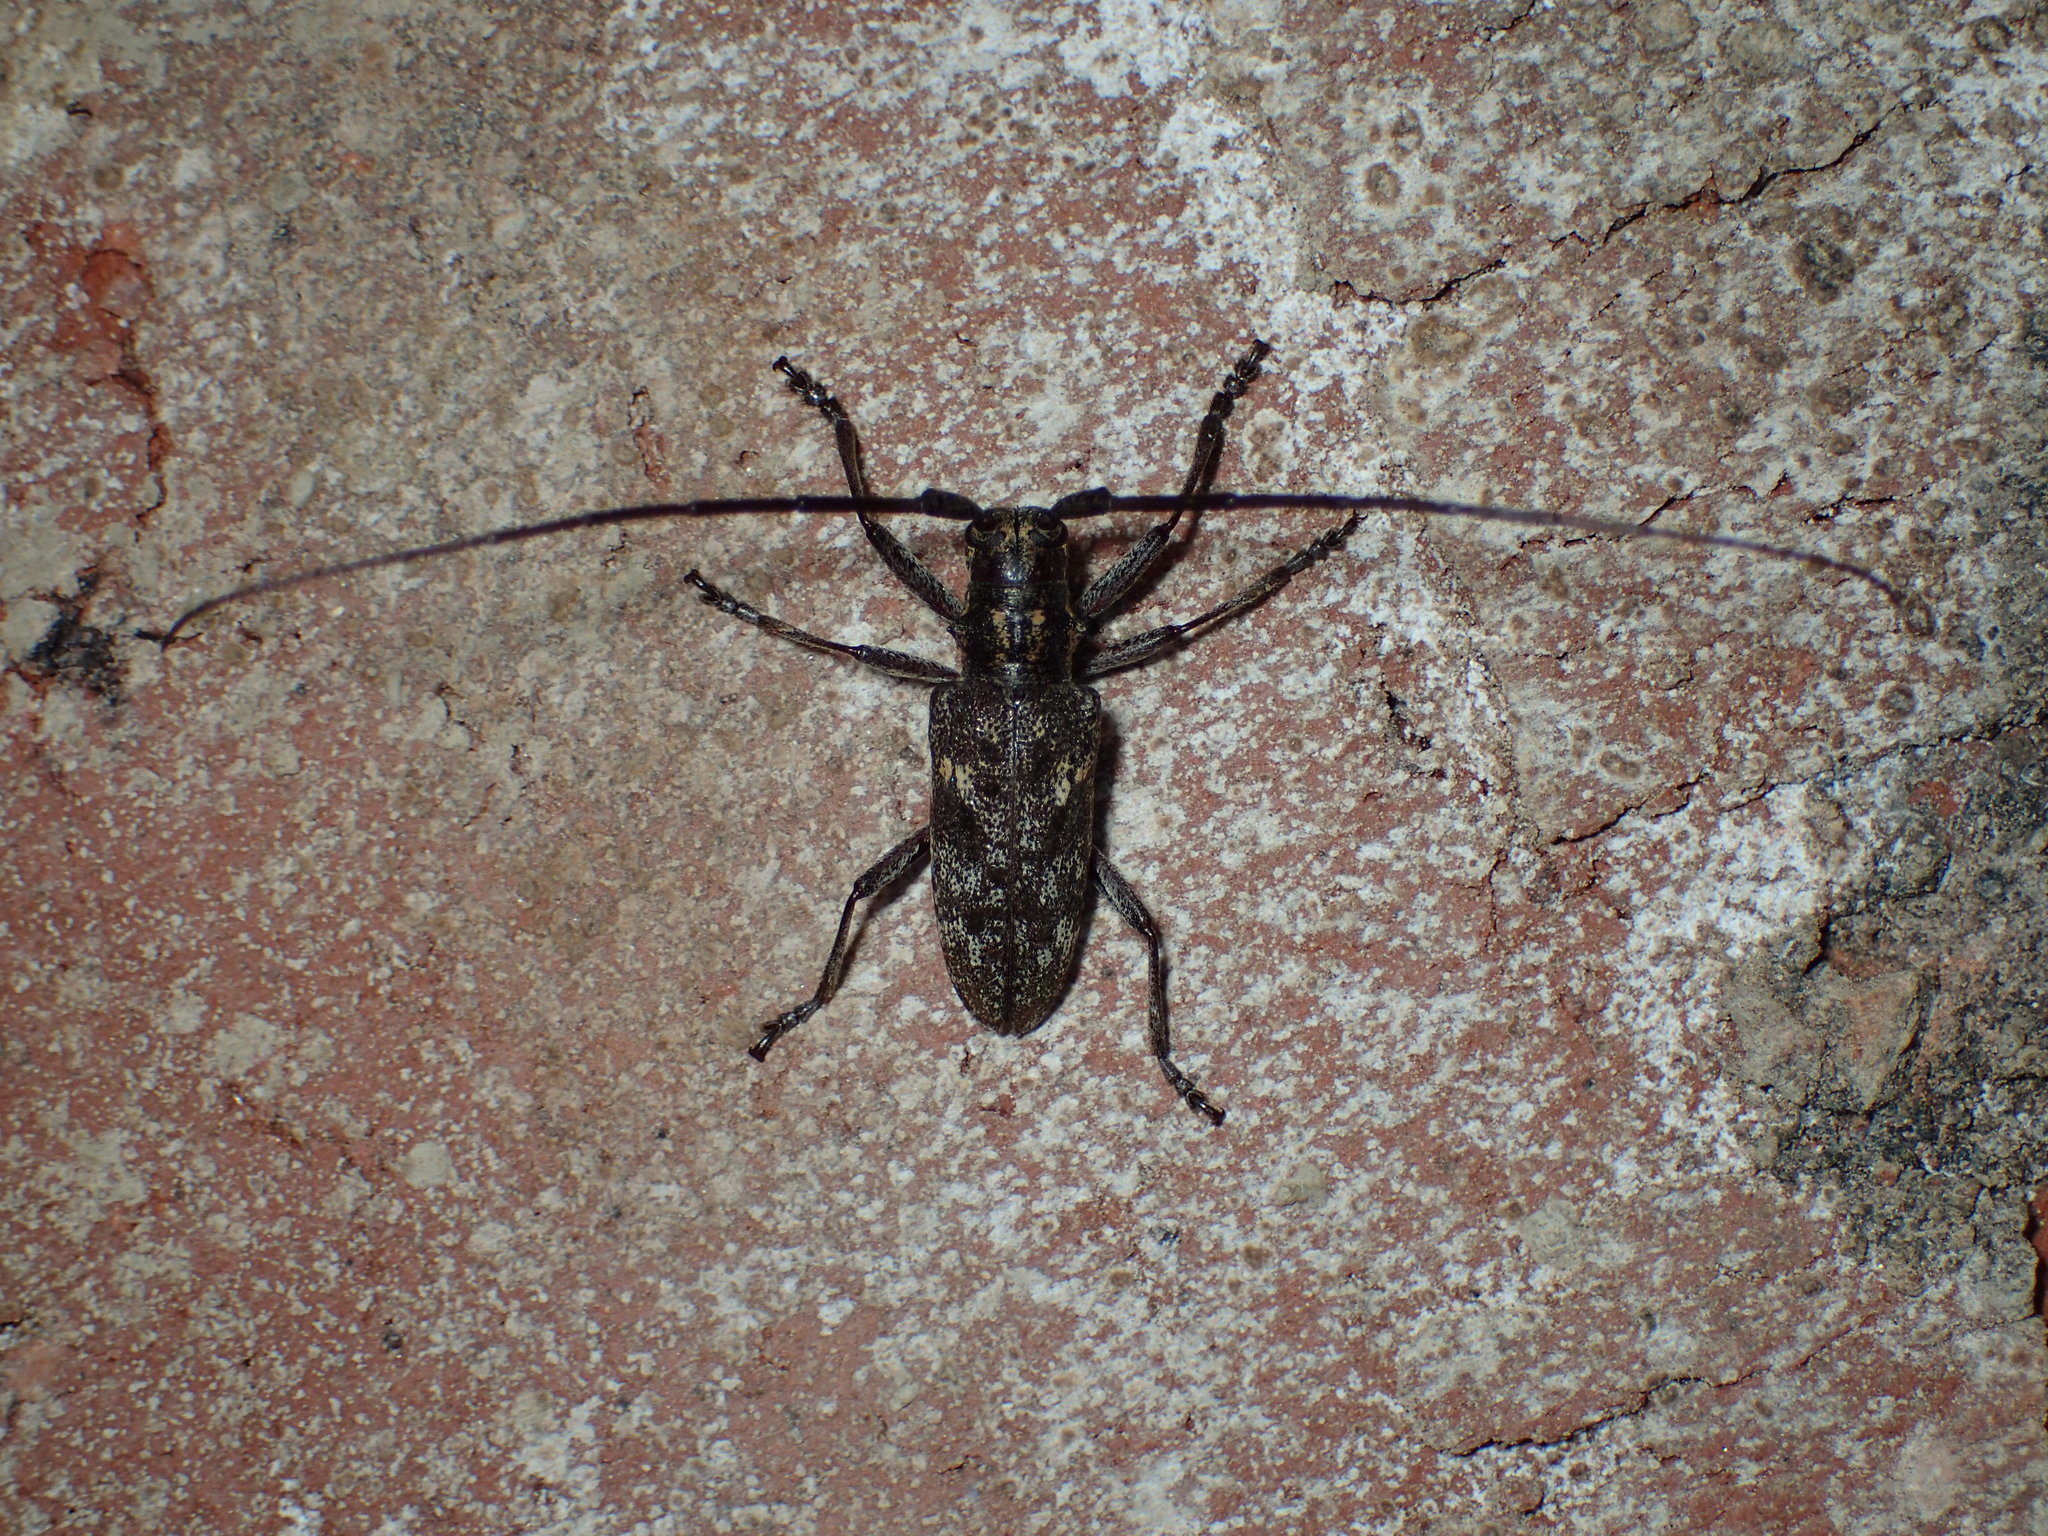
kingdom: Animalia
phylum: Arthropoda
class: Insecta
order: Coleoptera
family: Cerambycidae
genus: Monochamus
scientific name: Monochamus carolinensis
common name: Carolina pine sawyer
